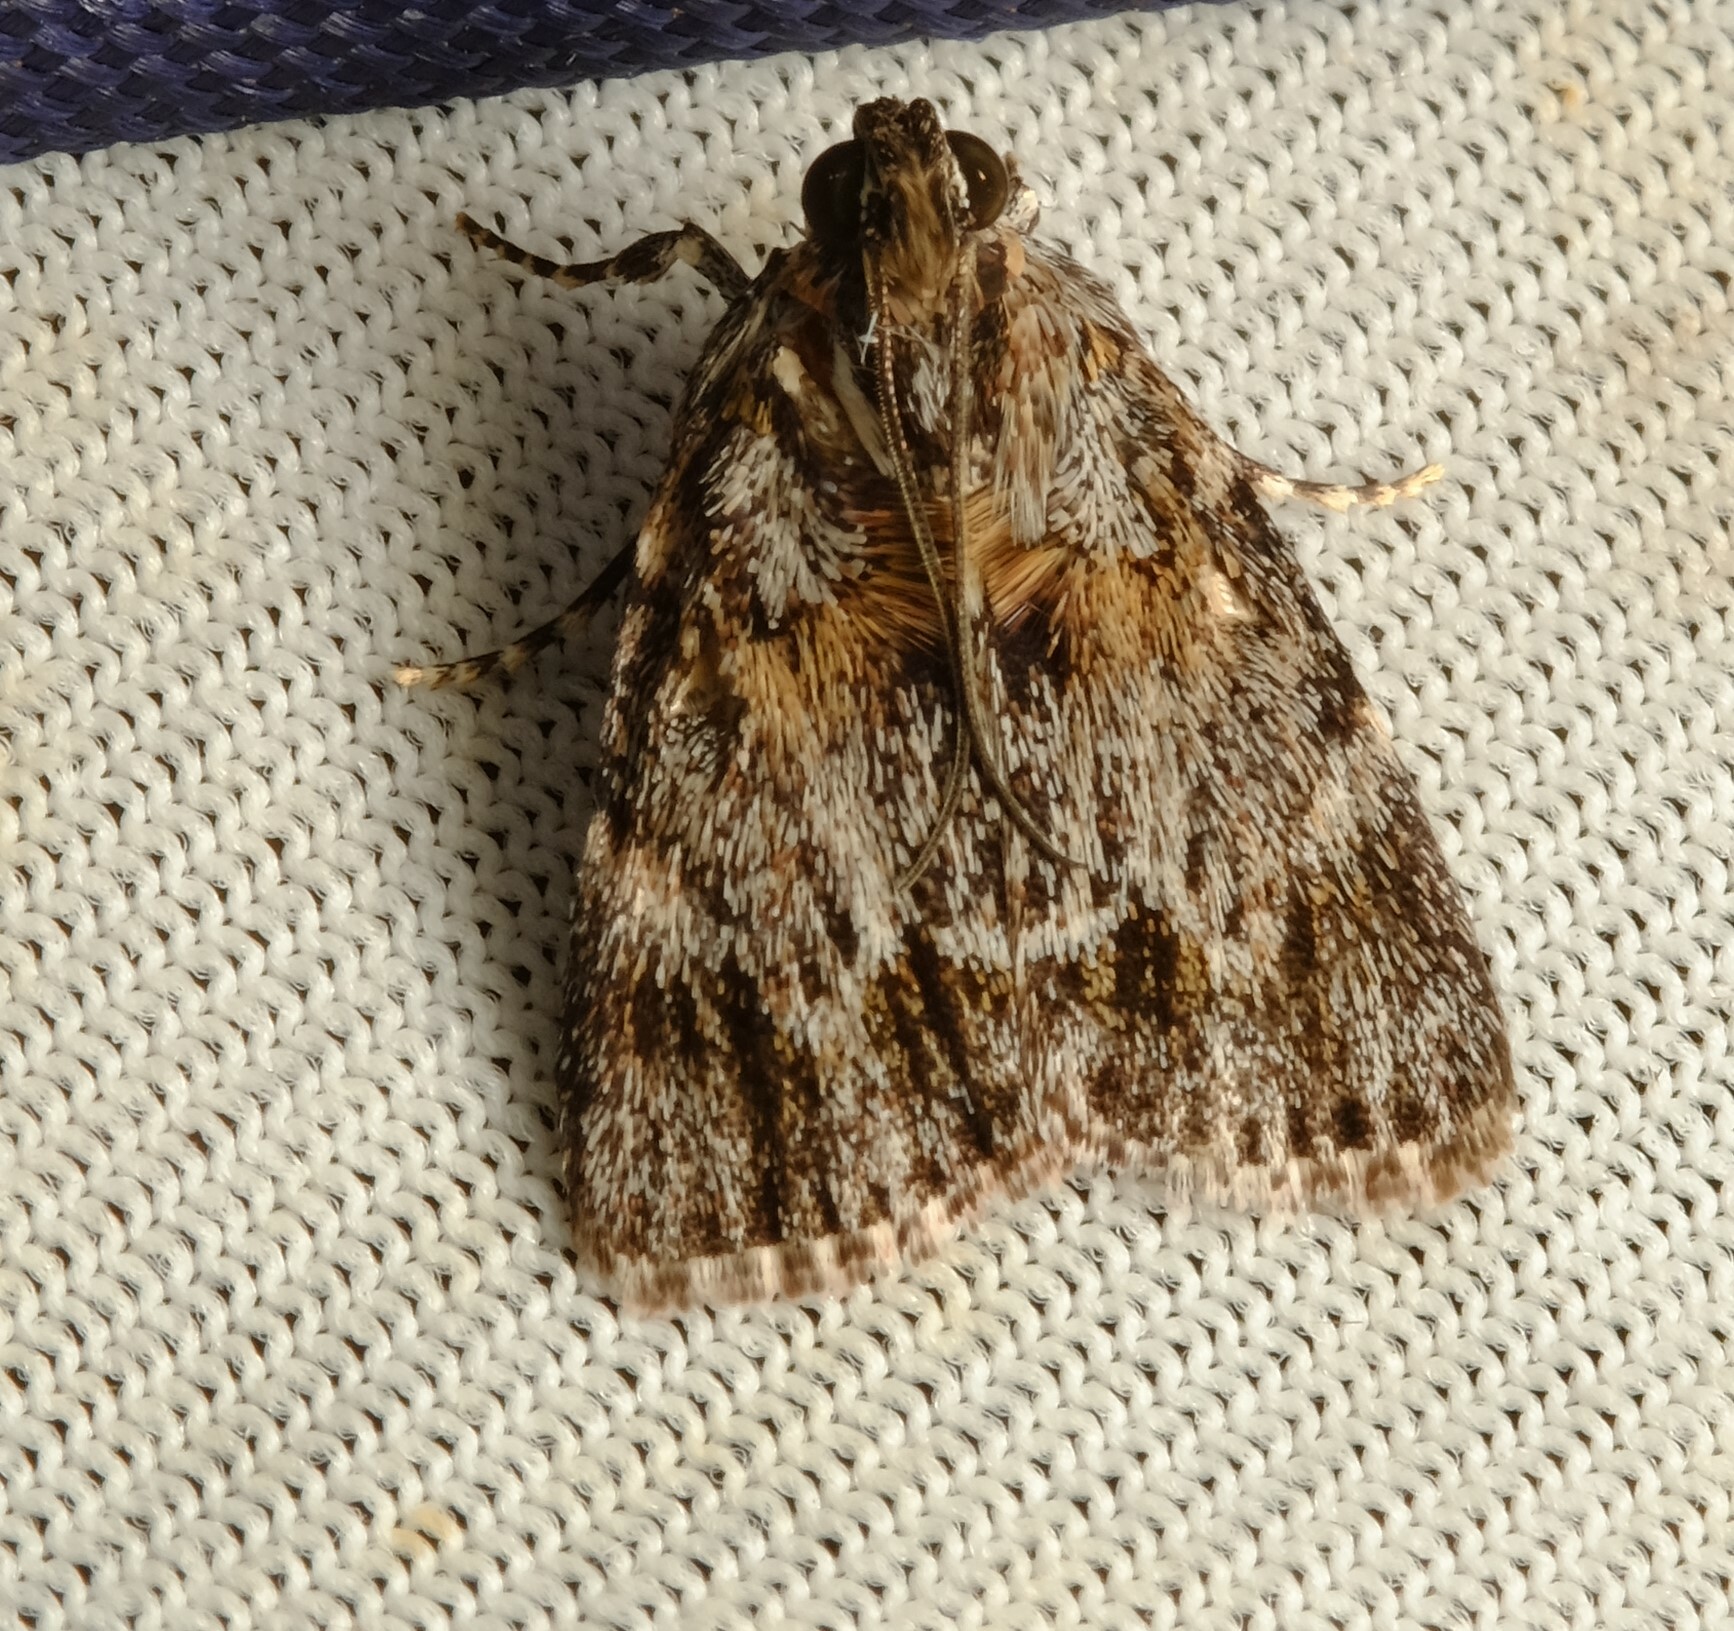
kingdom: Animalia
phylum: Arthropoda
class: Insecta
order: Lepidoptera
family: Pyralidae
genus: Spectrotrota
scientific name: Spectrotrota fimbrialis
